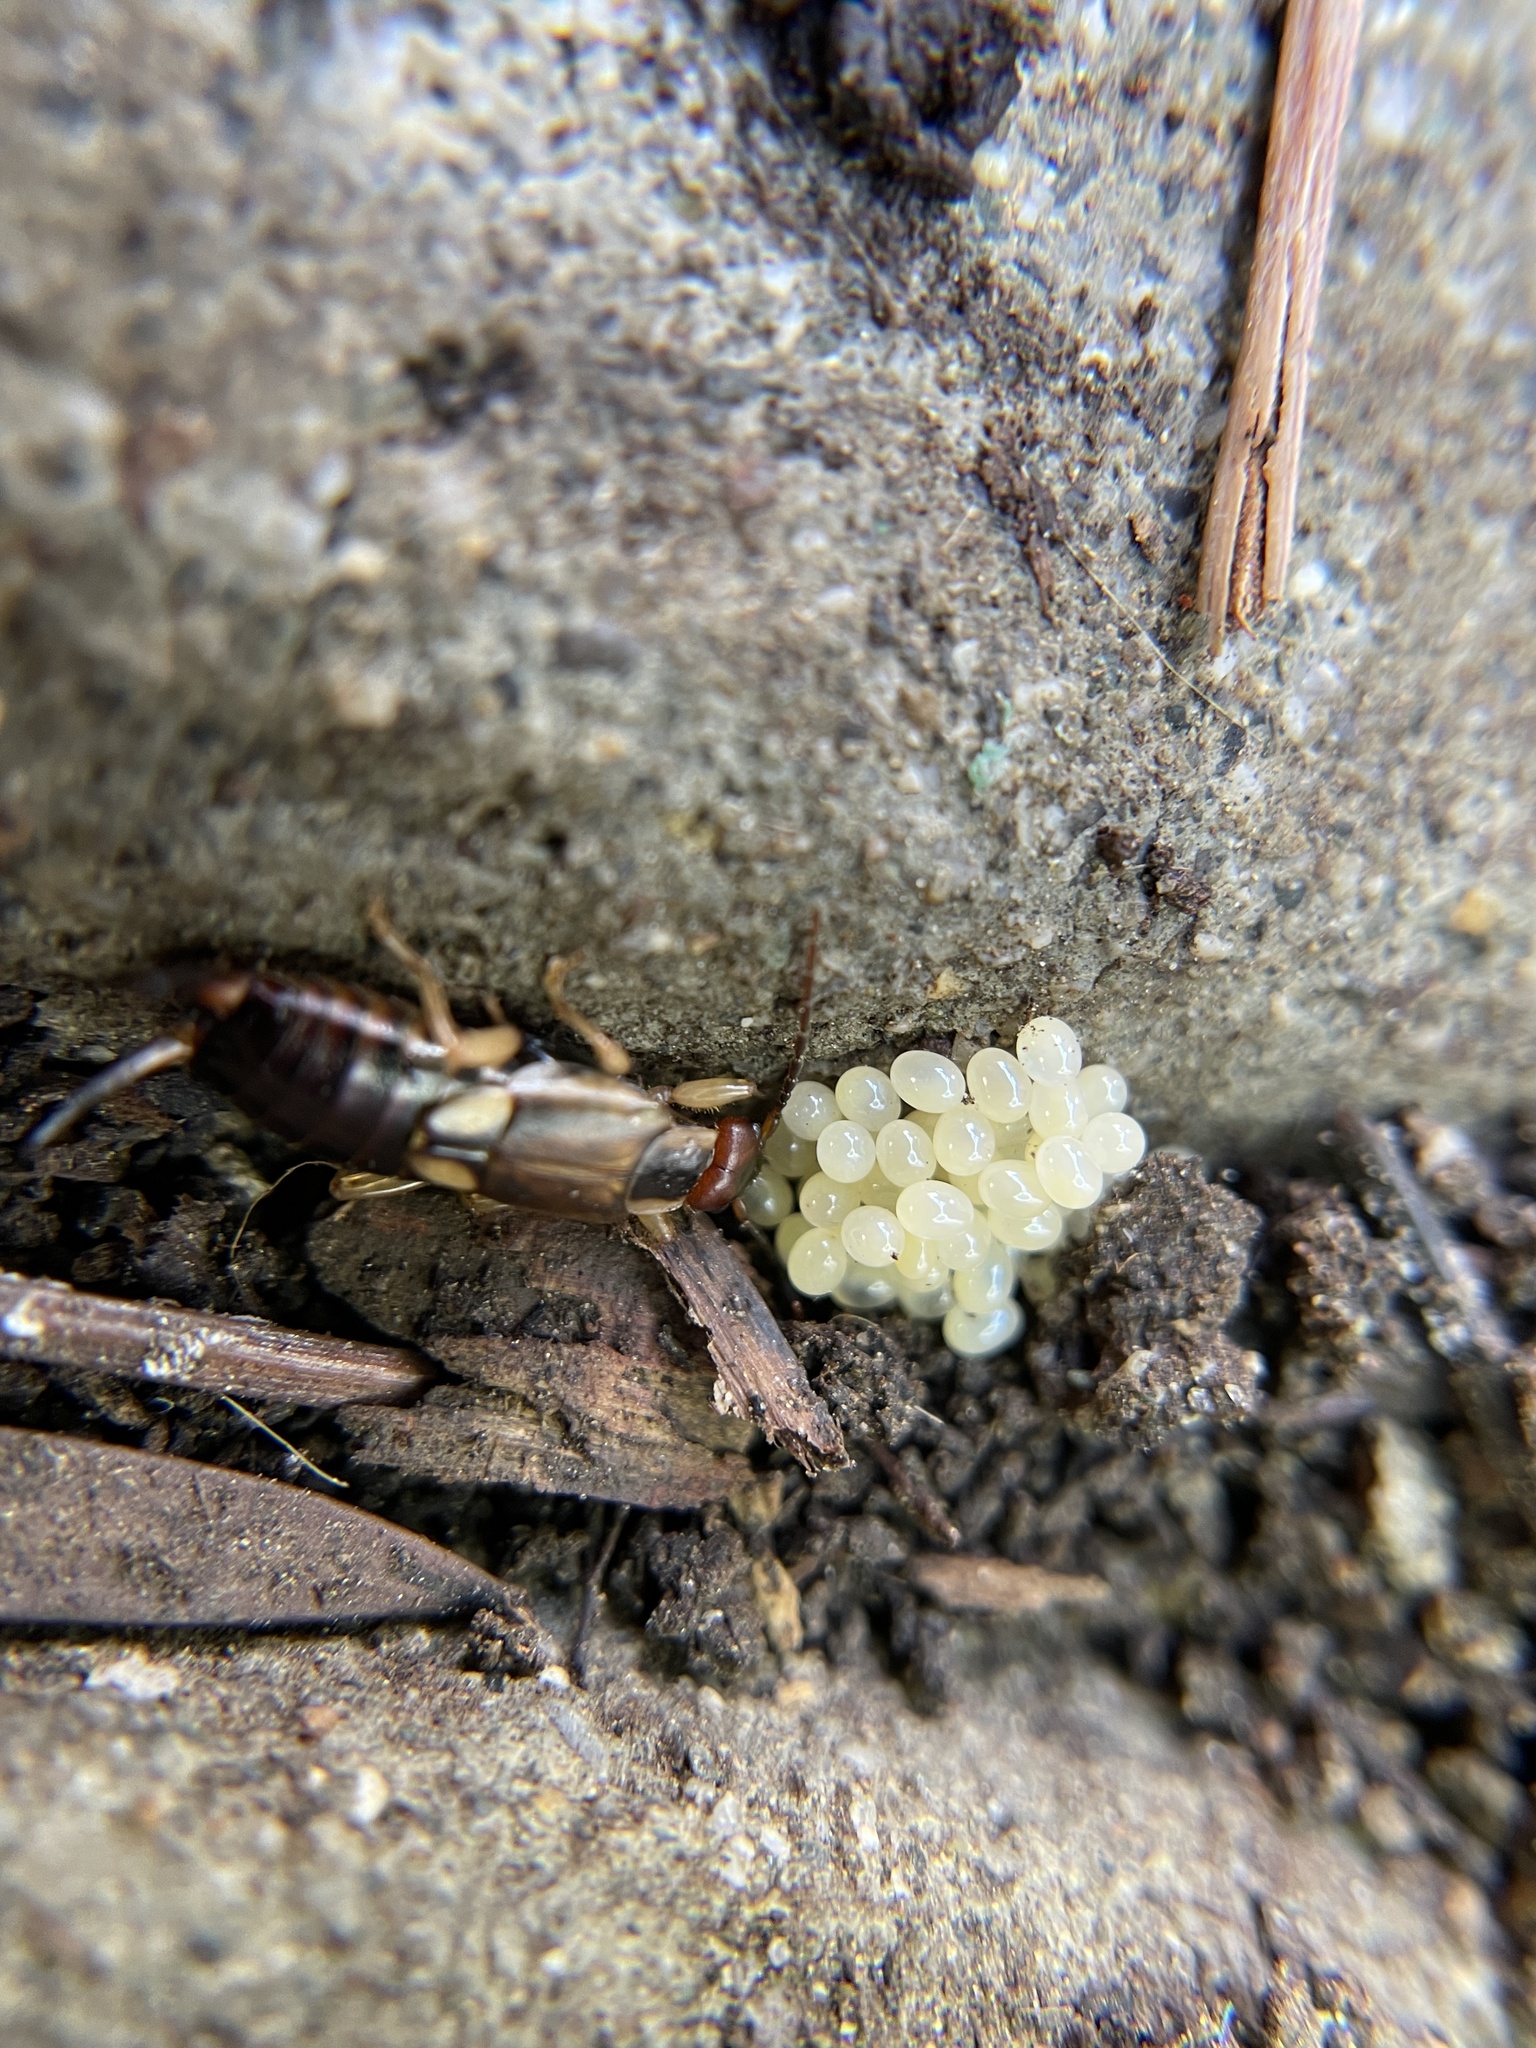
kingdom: Animalia
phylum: Arthropoda
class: Insecta
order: Dermaptera
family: Forficulidae
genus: Forficula
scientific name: Forficula
